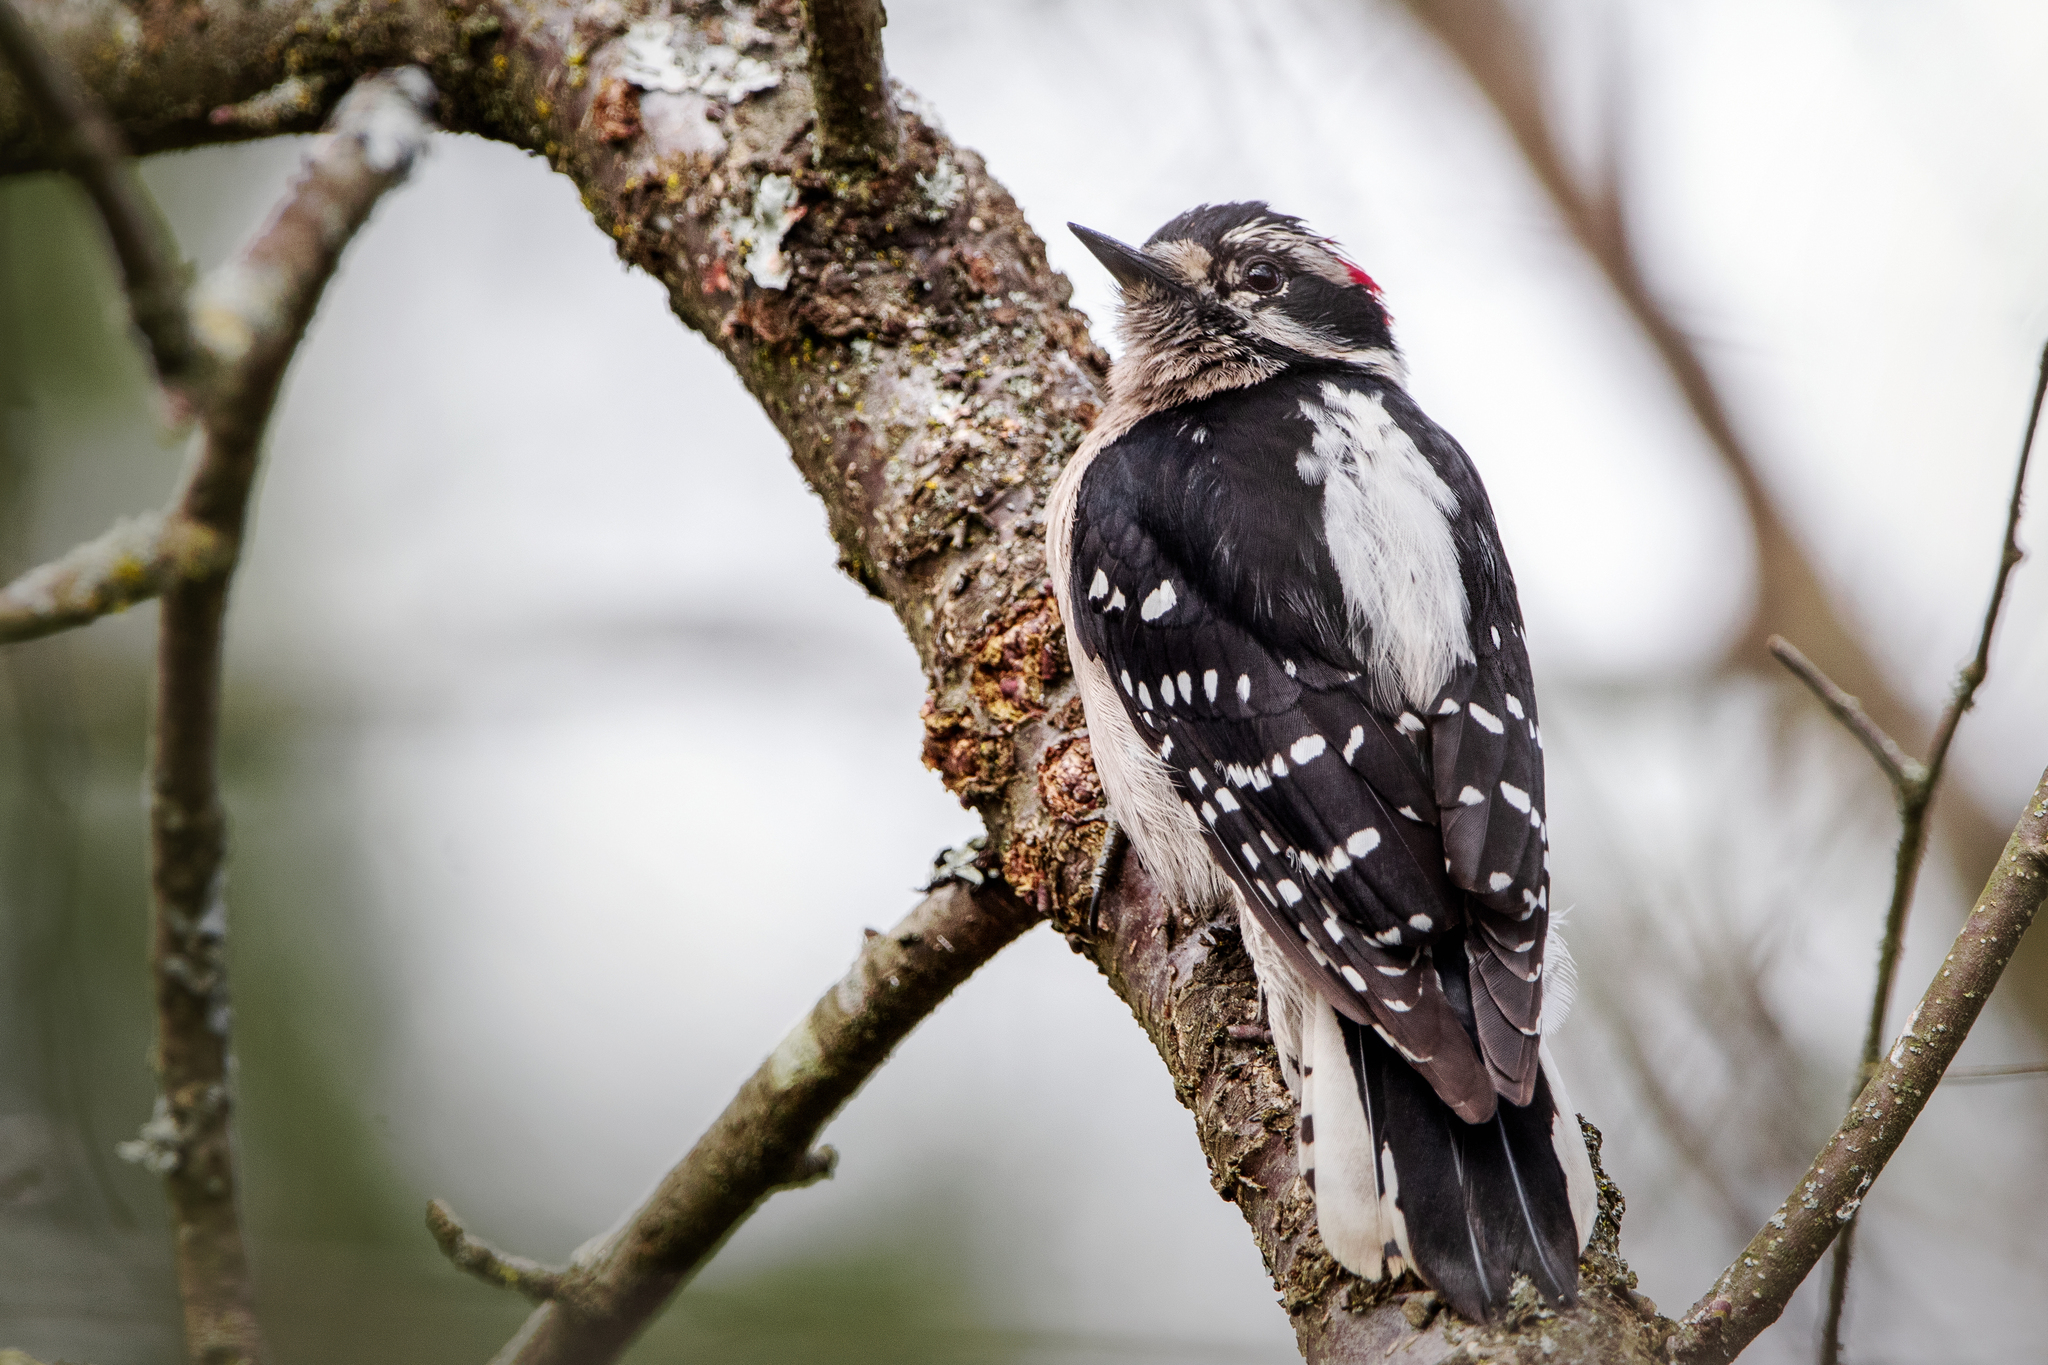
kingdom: Animalia
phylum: Chordata
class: Aves
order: Piciformes
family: Picidae
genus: Dryobates
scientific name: Dryobates pubescens
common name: Downy woodpecker
